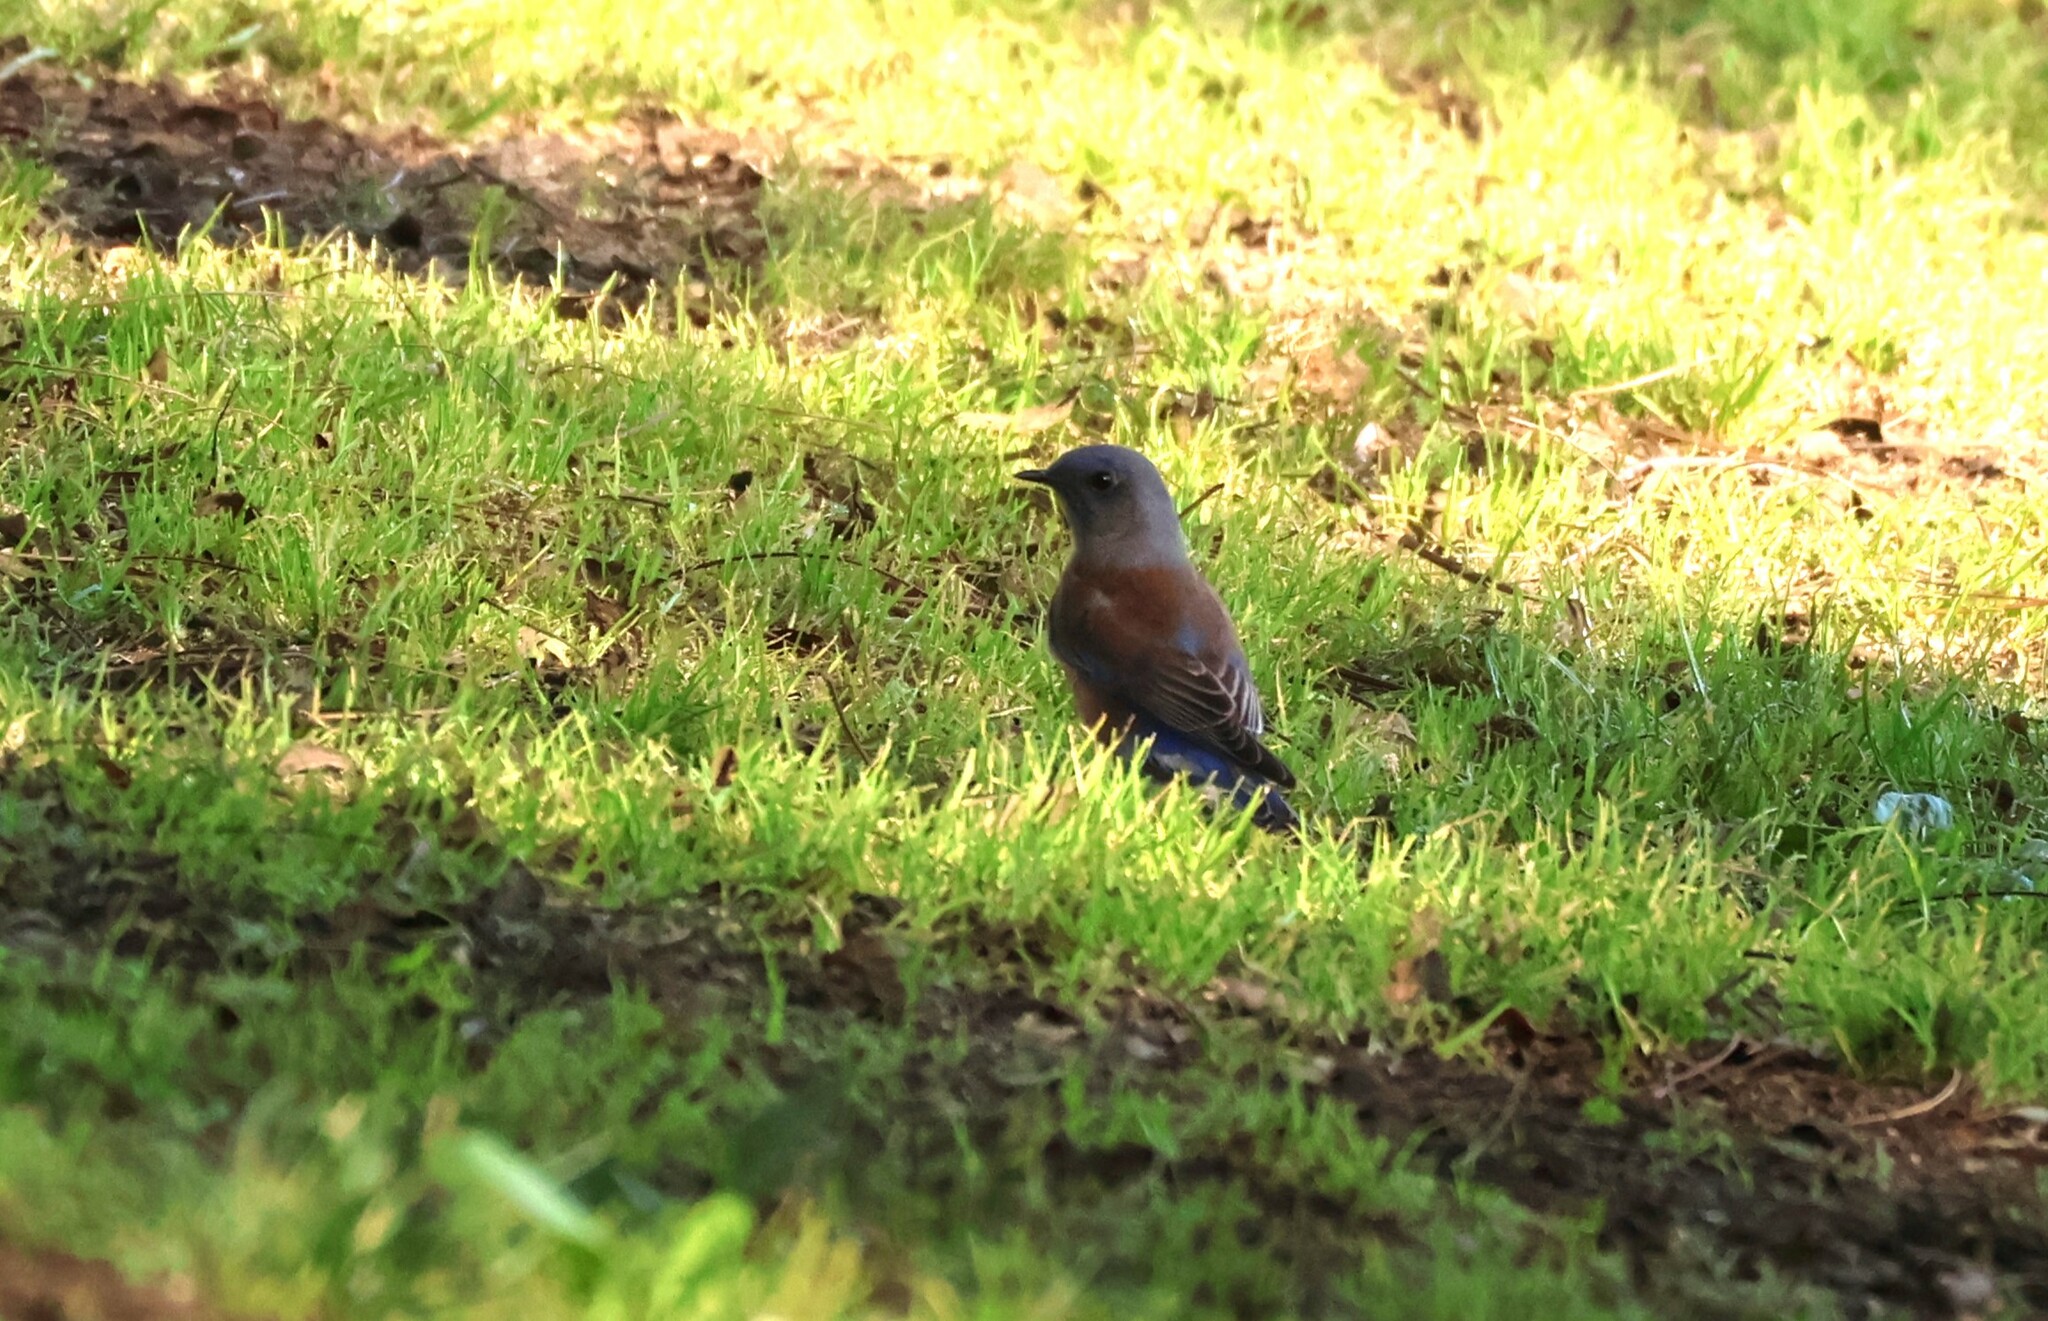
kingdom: Animalia
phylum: Chordata
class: Aves
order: Passeriformes
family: Turdidae
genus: Sialia
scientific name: Sialia mexicana
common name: Western bluebird
